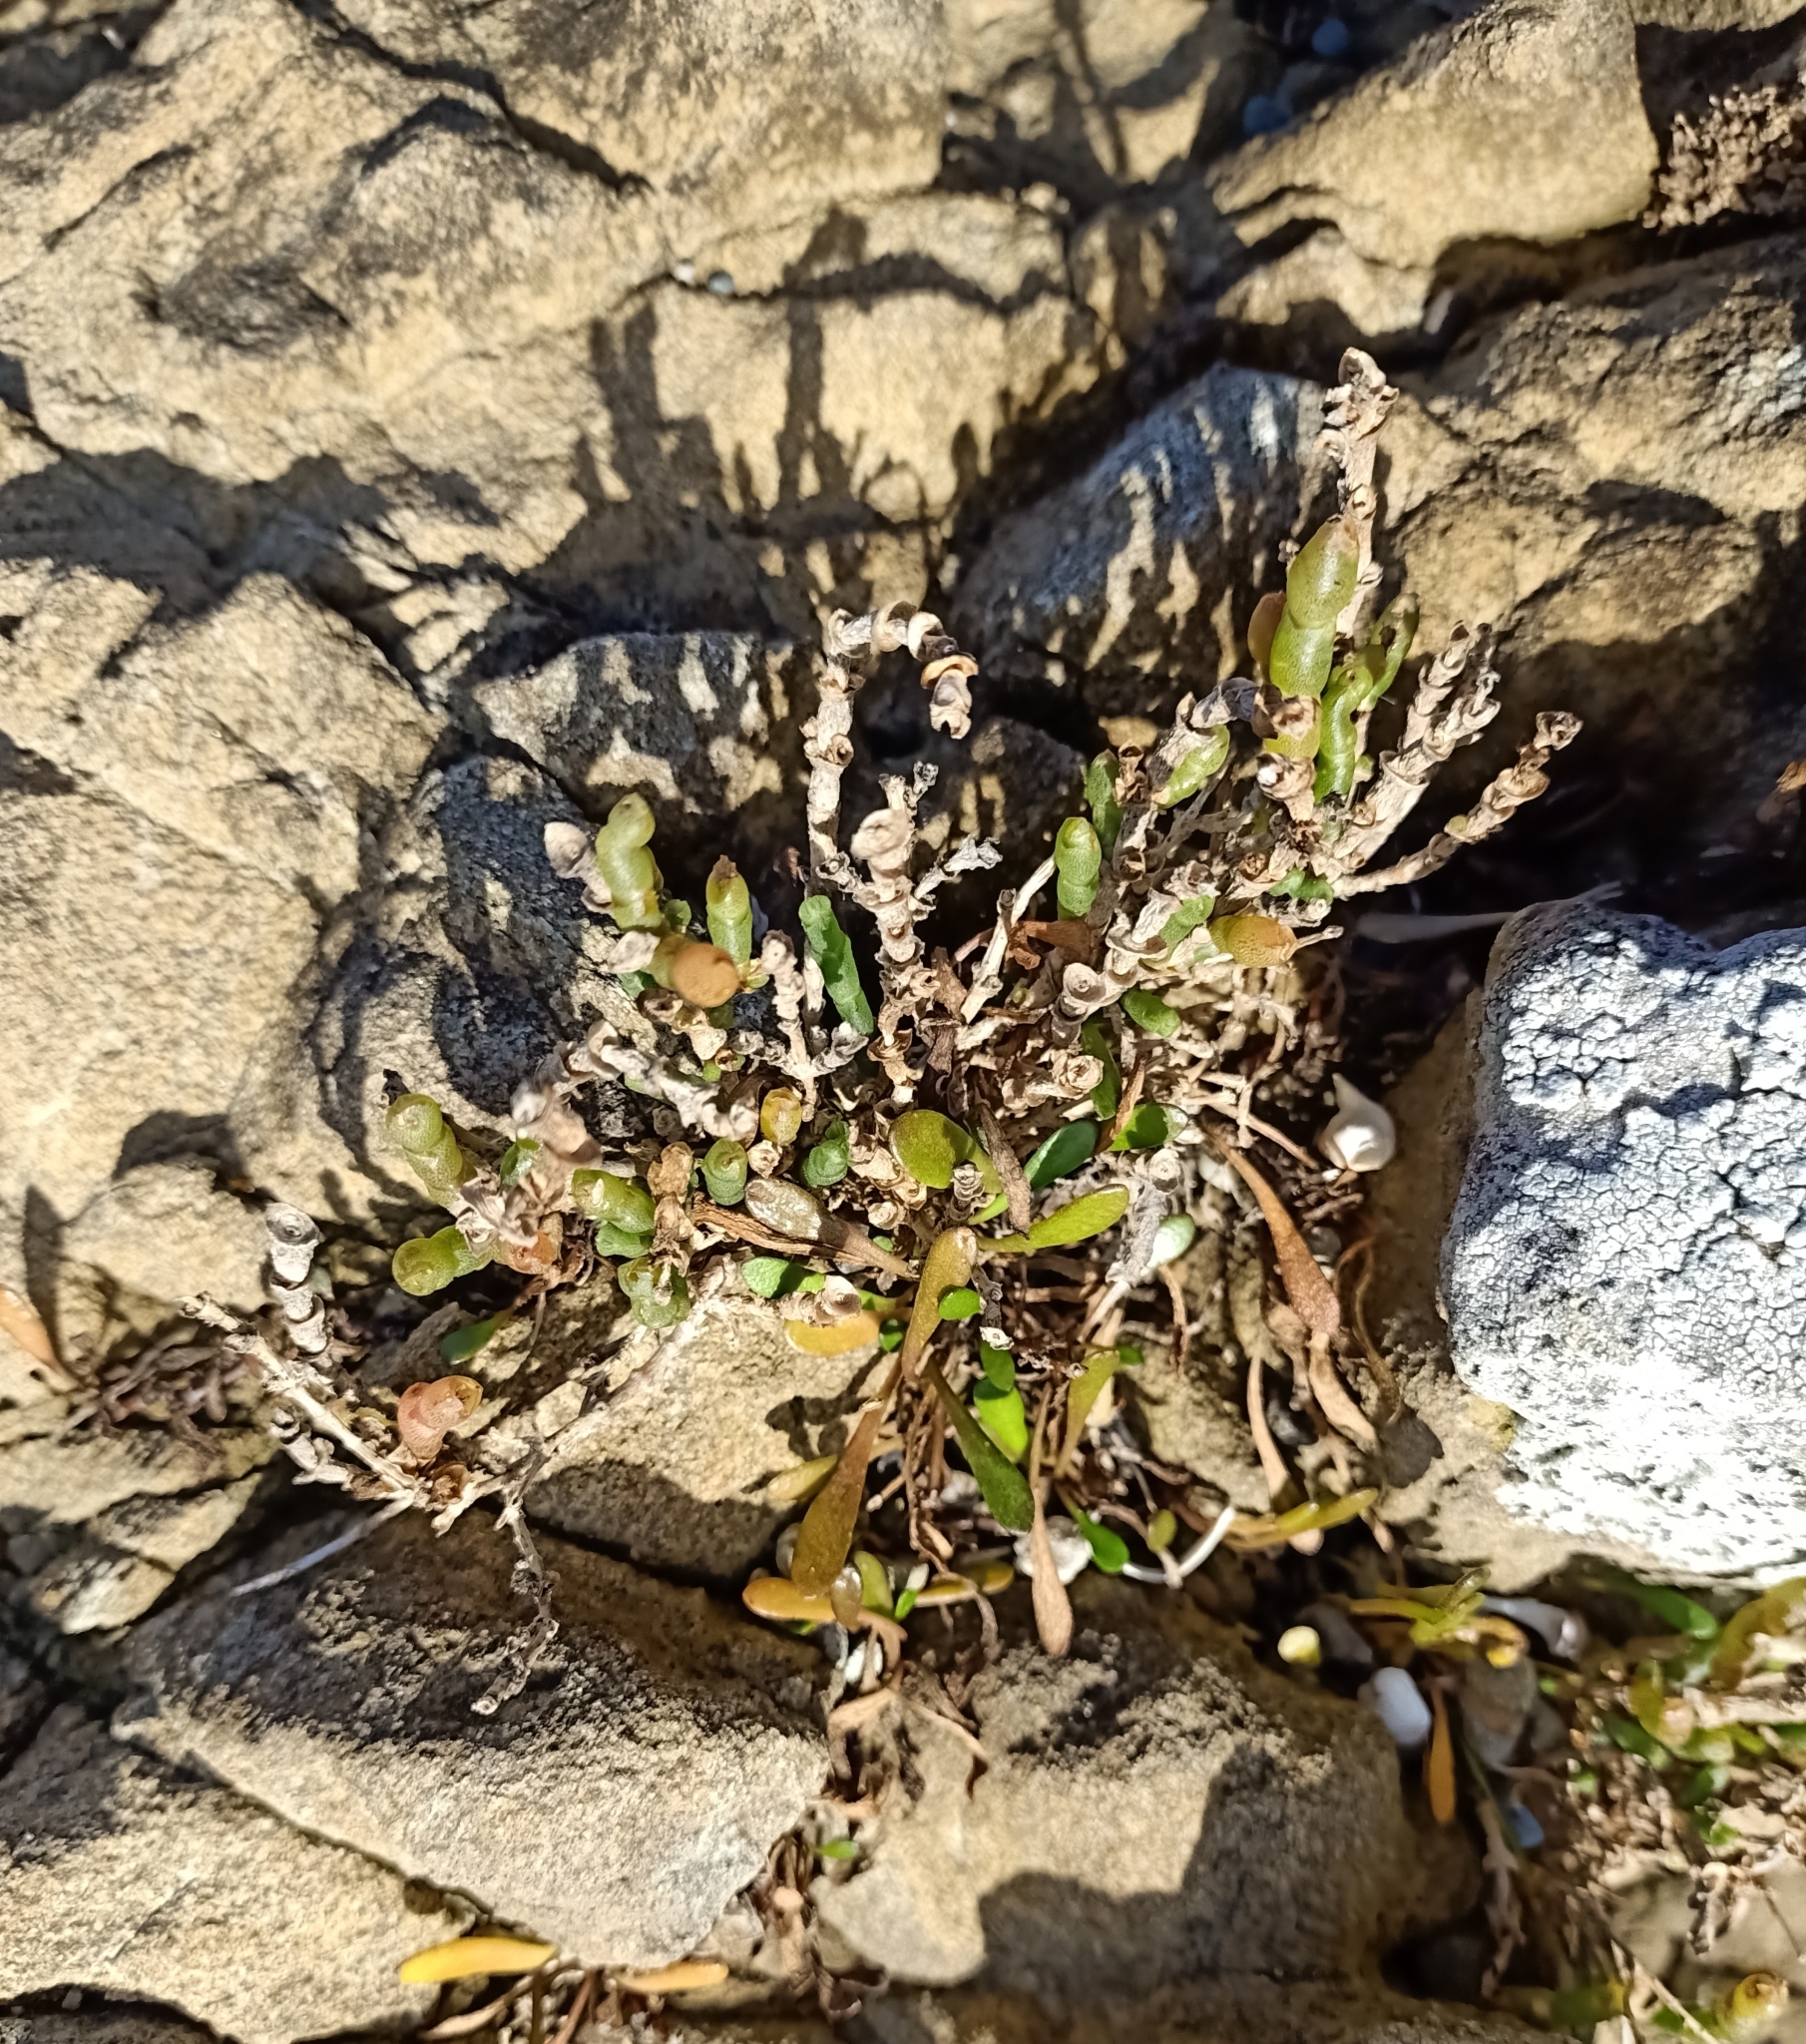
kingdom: Plantae
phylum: Tracheophyta
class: Magnoliopsida
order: Caryophyllales
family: Amaranthaceae
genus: Salicornia
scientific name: Salicornia quinqueflora
